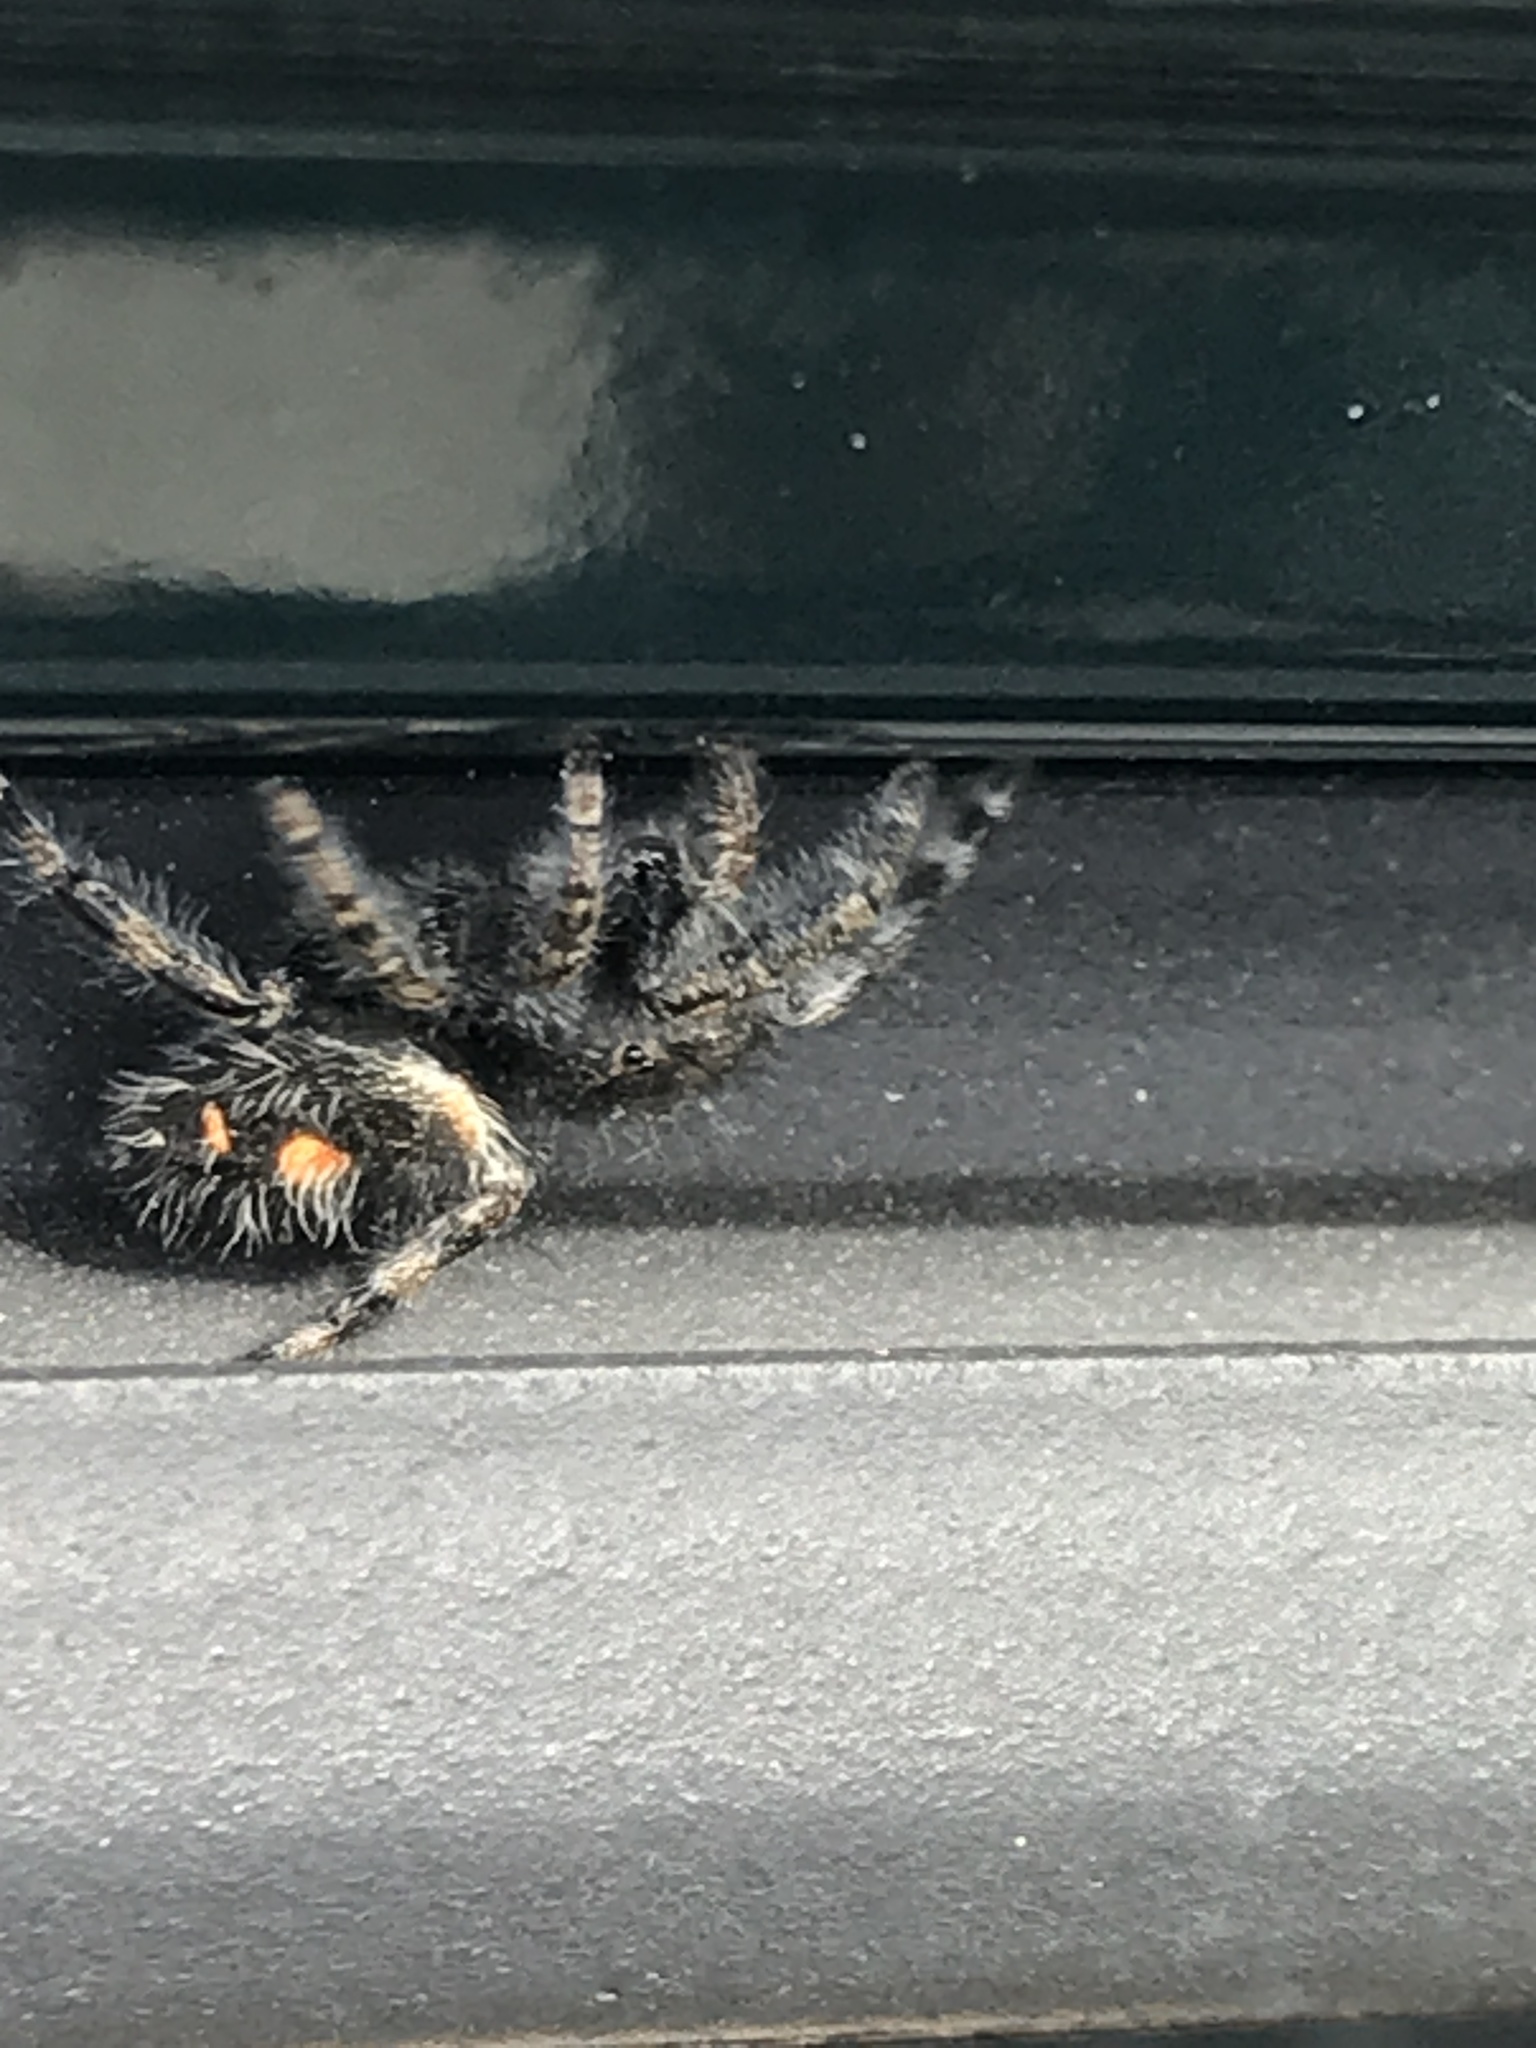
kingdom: Animalia
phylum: Arthropoda
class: Arachnida
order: Araneae
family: Salticidae
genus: Phidippus
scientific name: Phidippus audax
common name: Bold jumper
